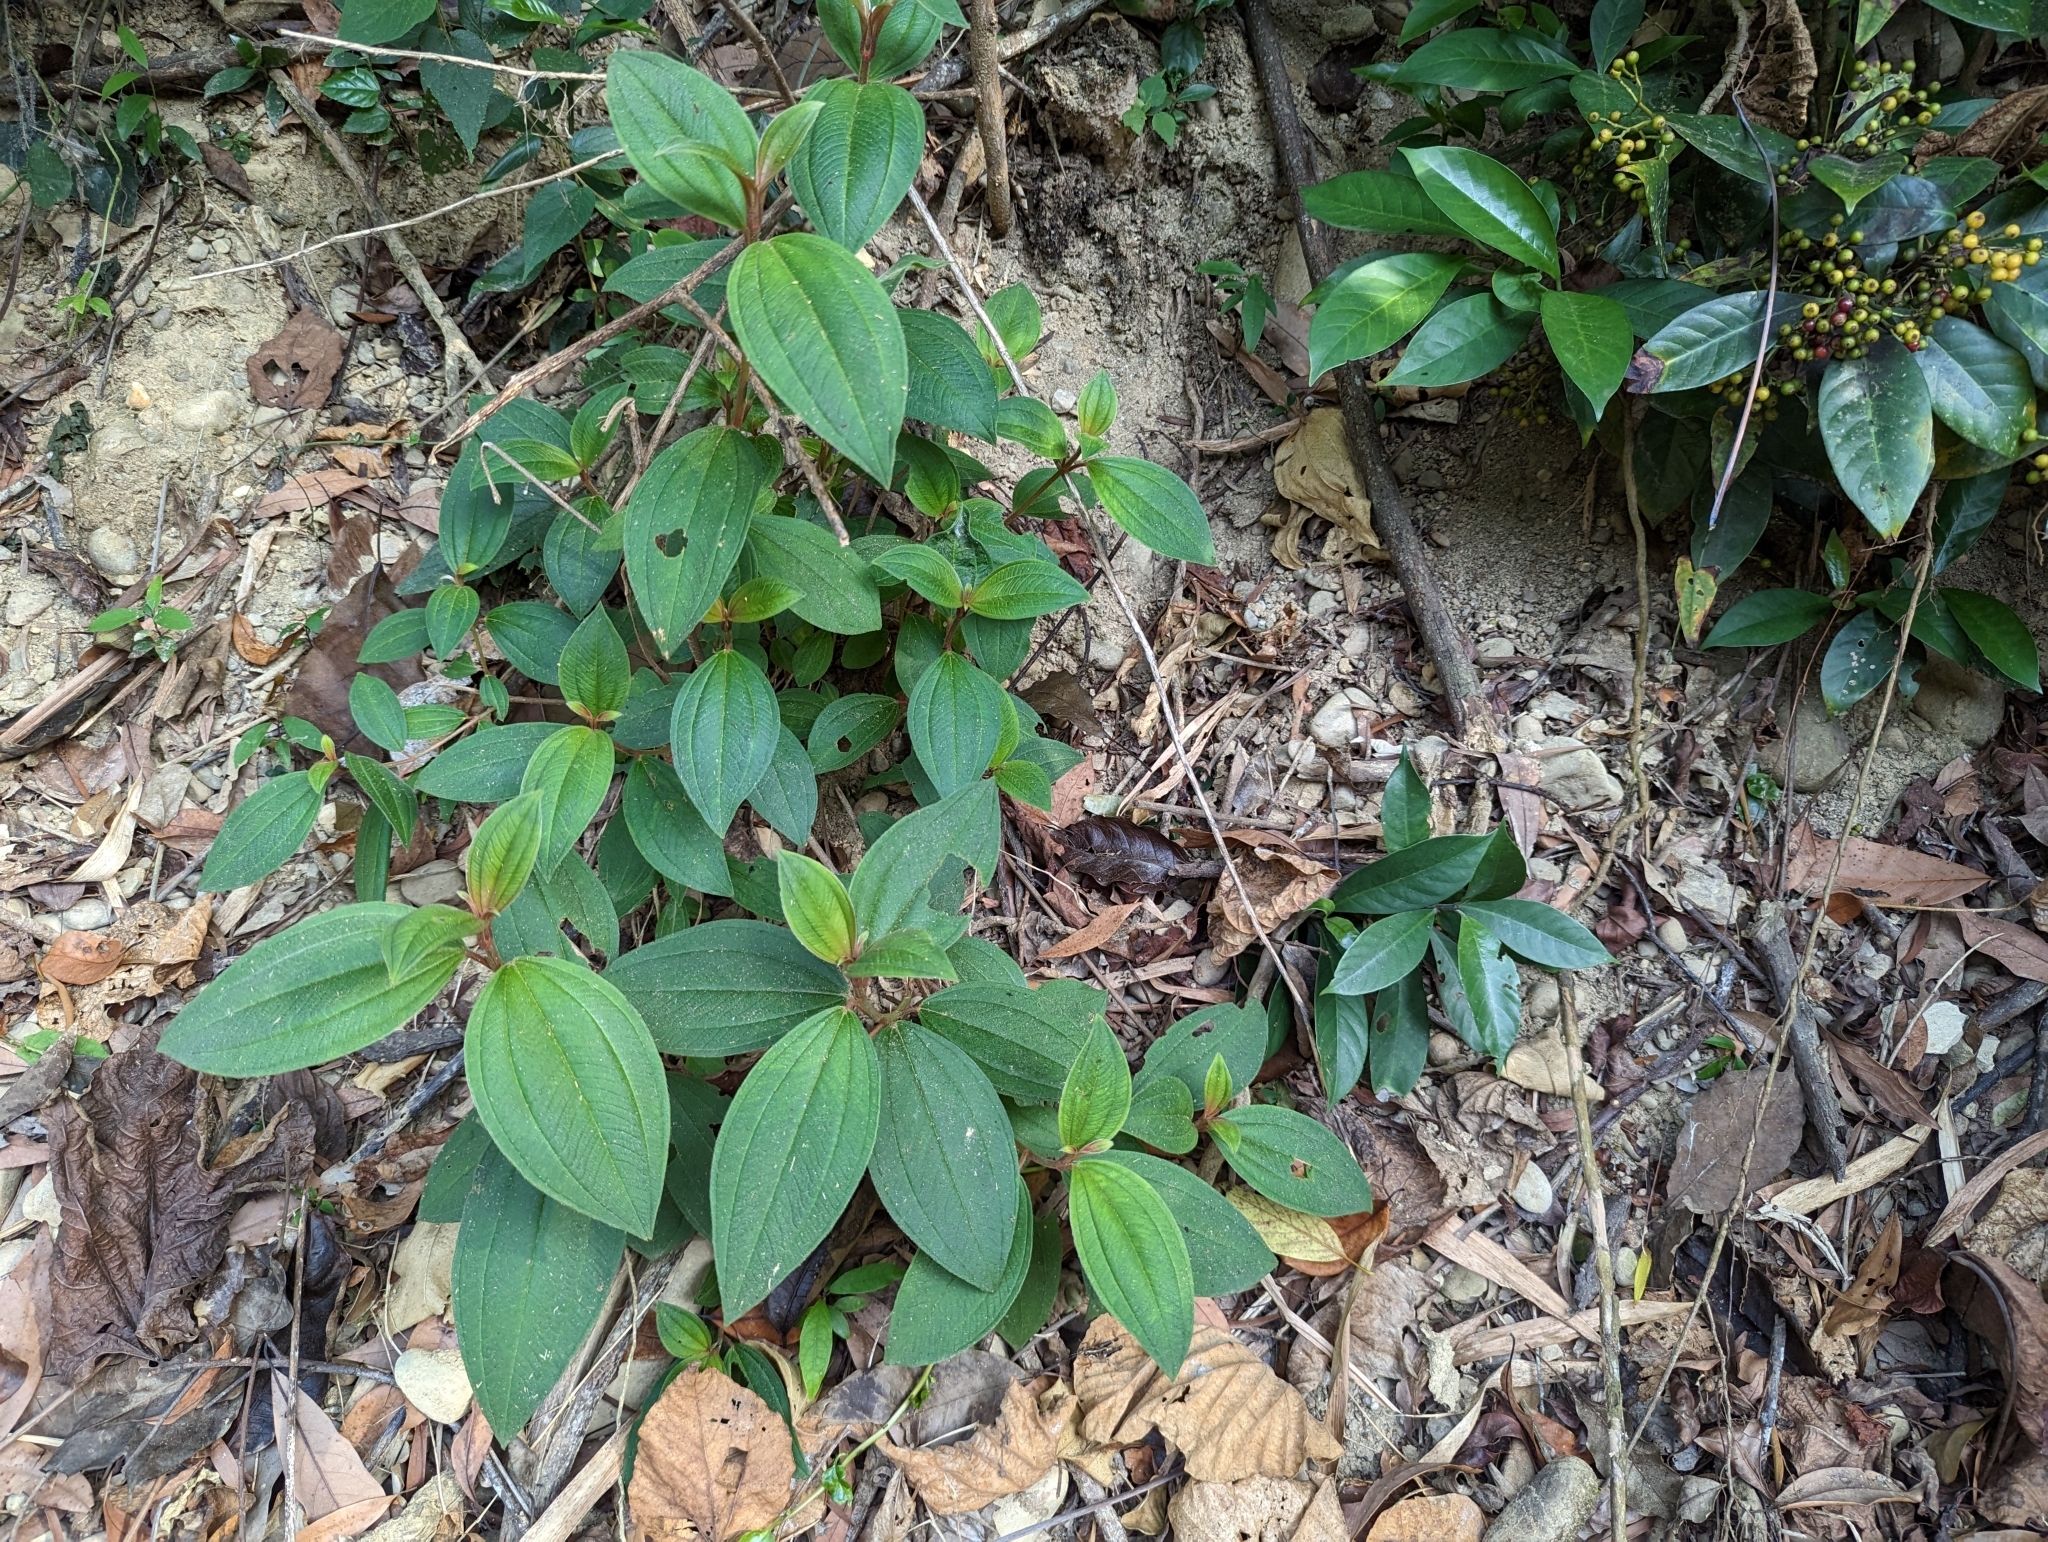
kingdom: Plantae
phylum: Tracheophyta
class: Magnoliopsida
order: Myrtales
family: Melastomataceae
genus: Melastoma
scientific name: Melastoma malabathricum
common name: Indian-rhododendron
